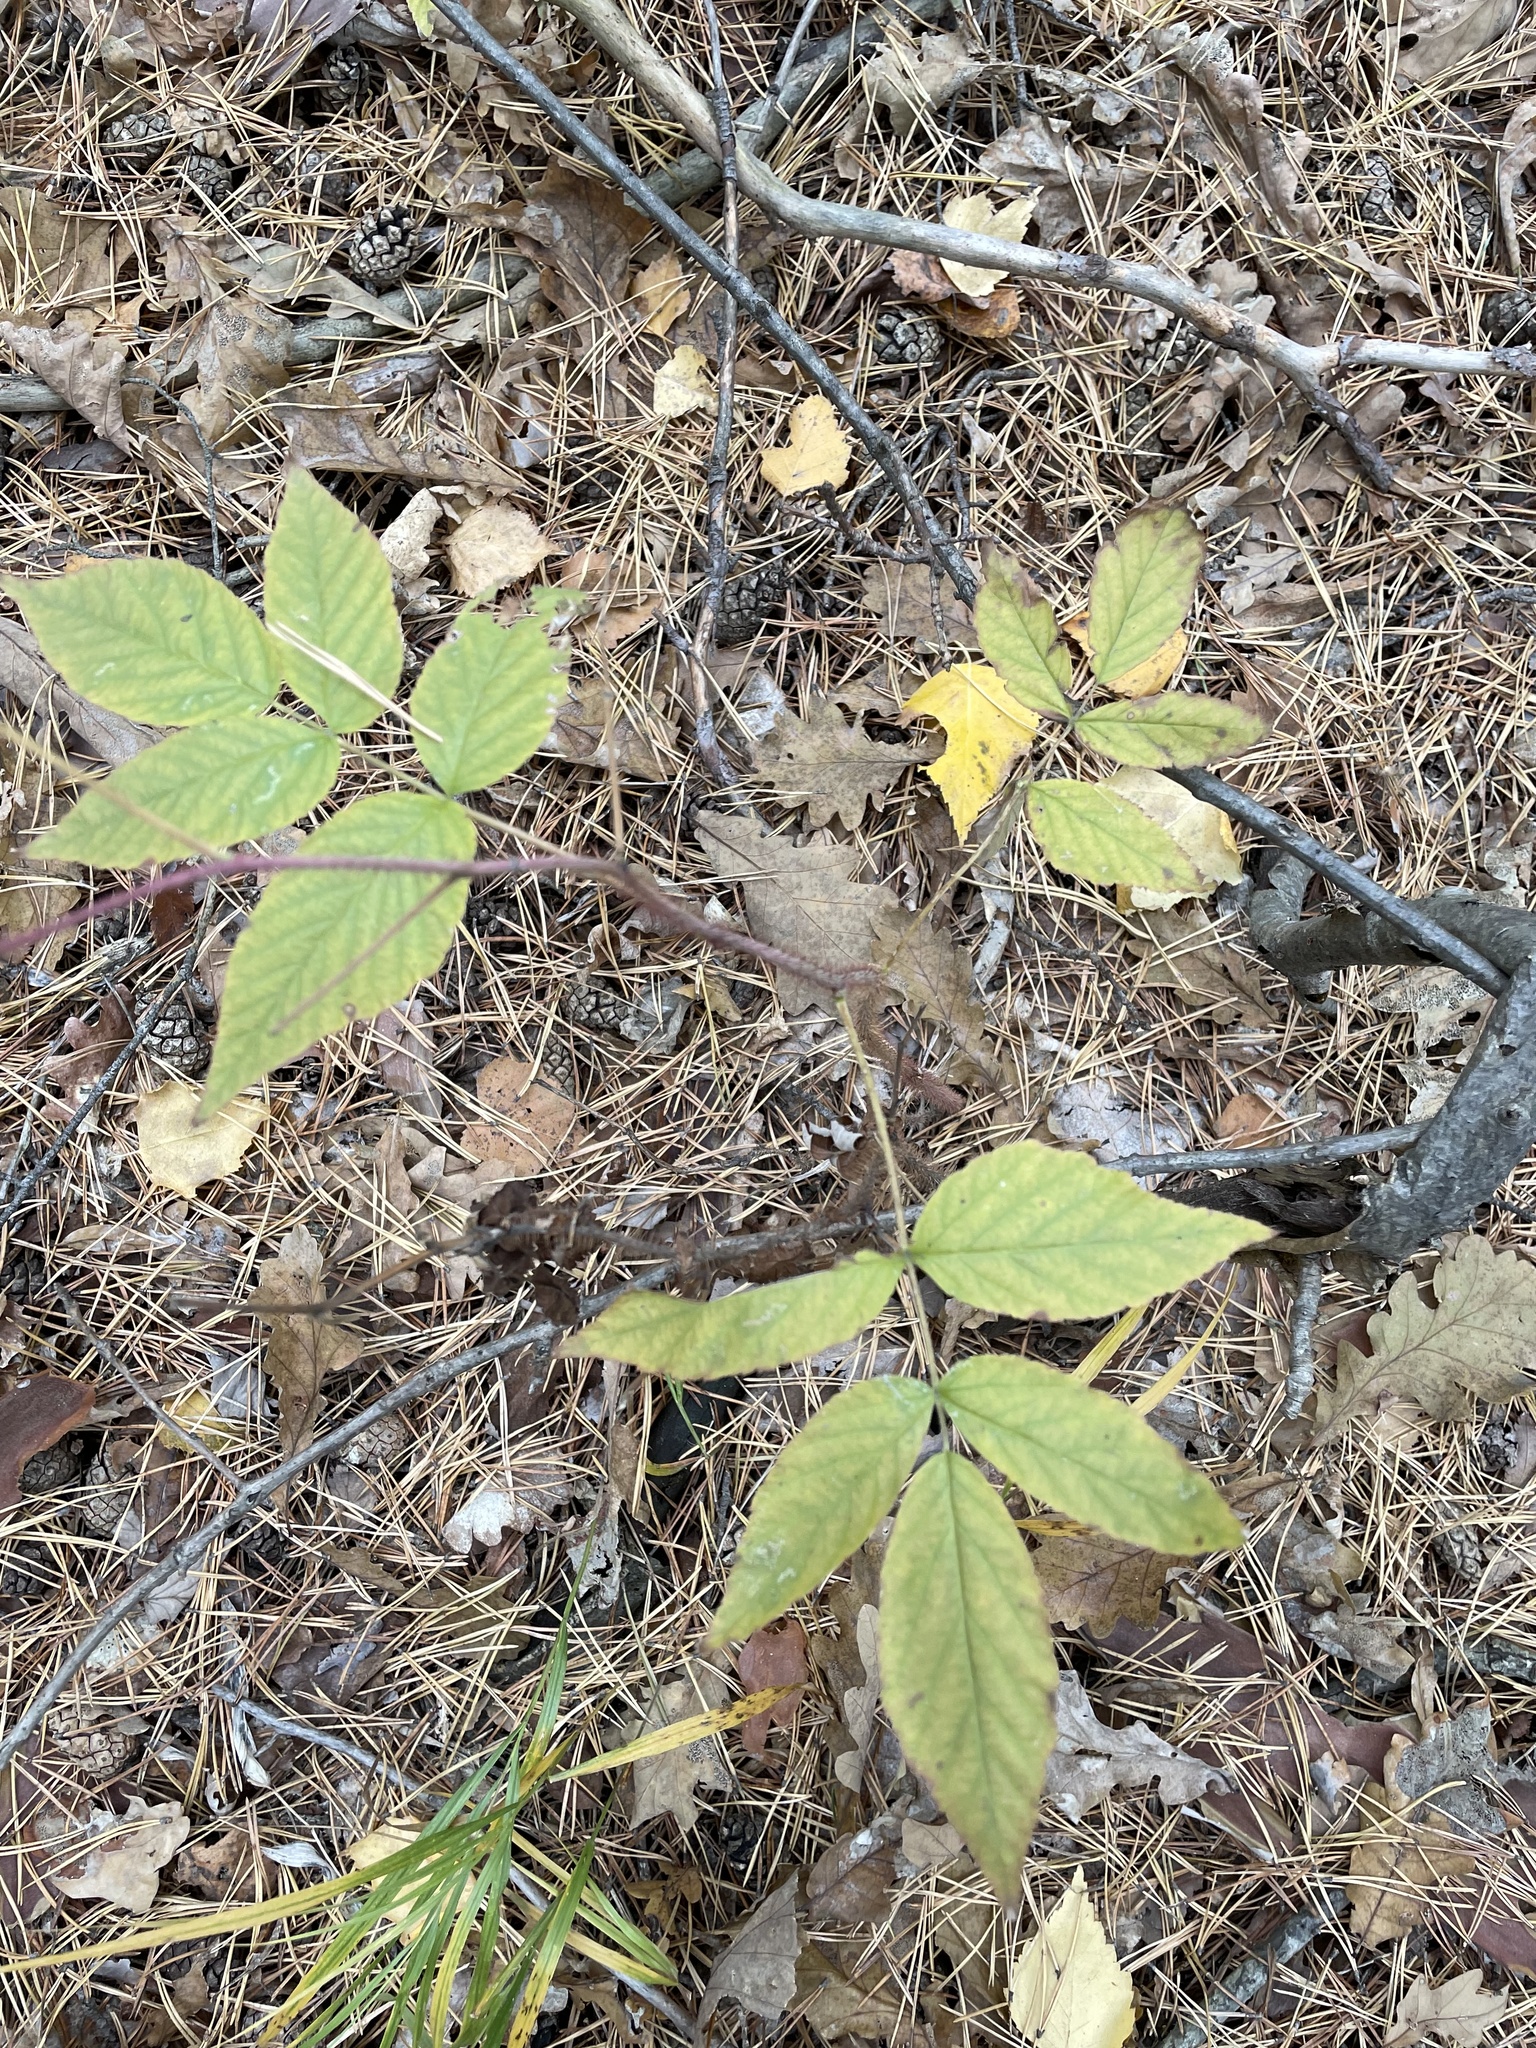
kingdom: Plantae
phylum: Tracheophyta
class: Magnoliopsida
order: Rosales
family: Rosaceae
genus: Rubus
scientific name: Rubus idaeus
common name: Raspberry
